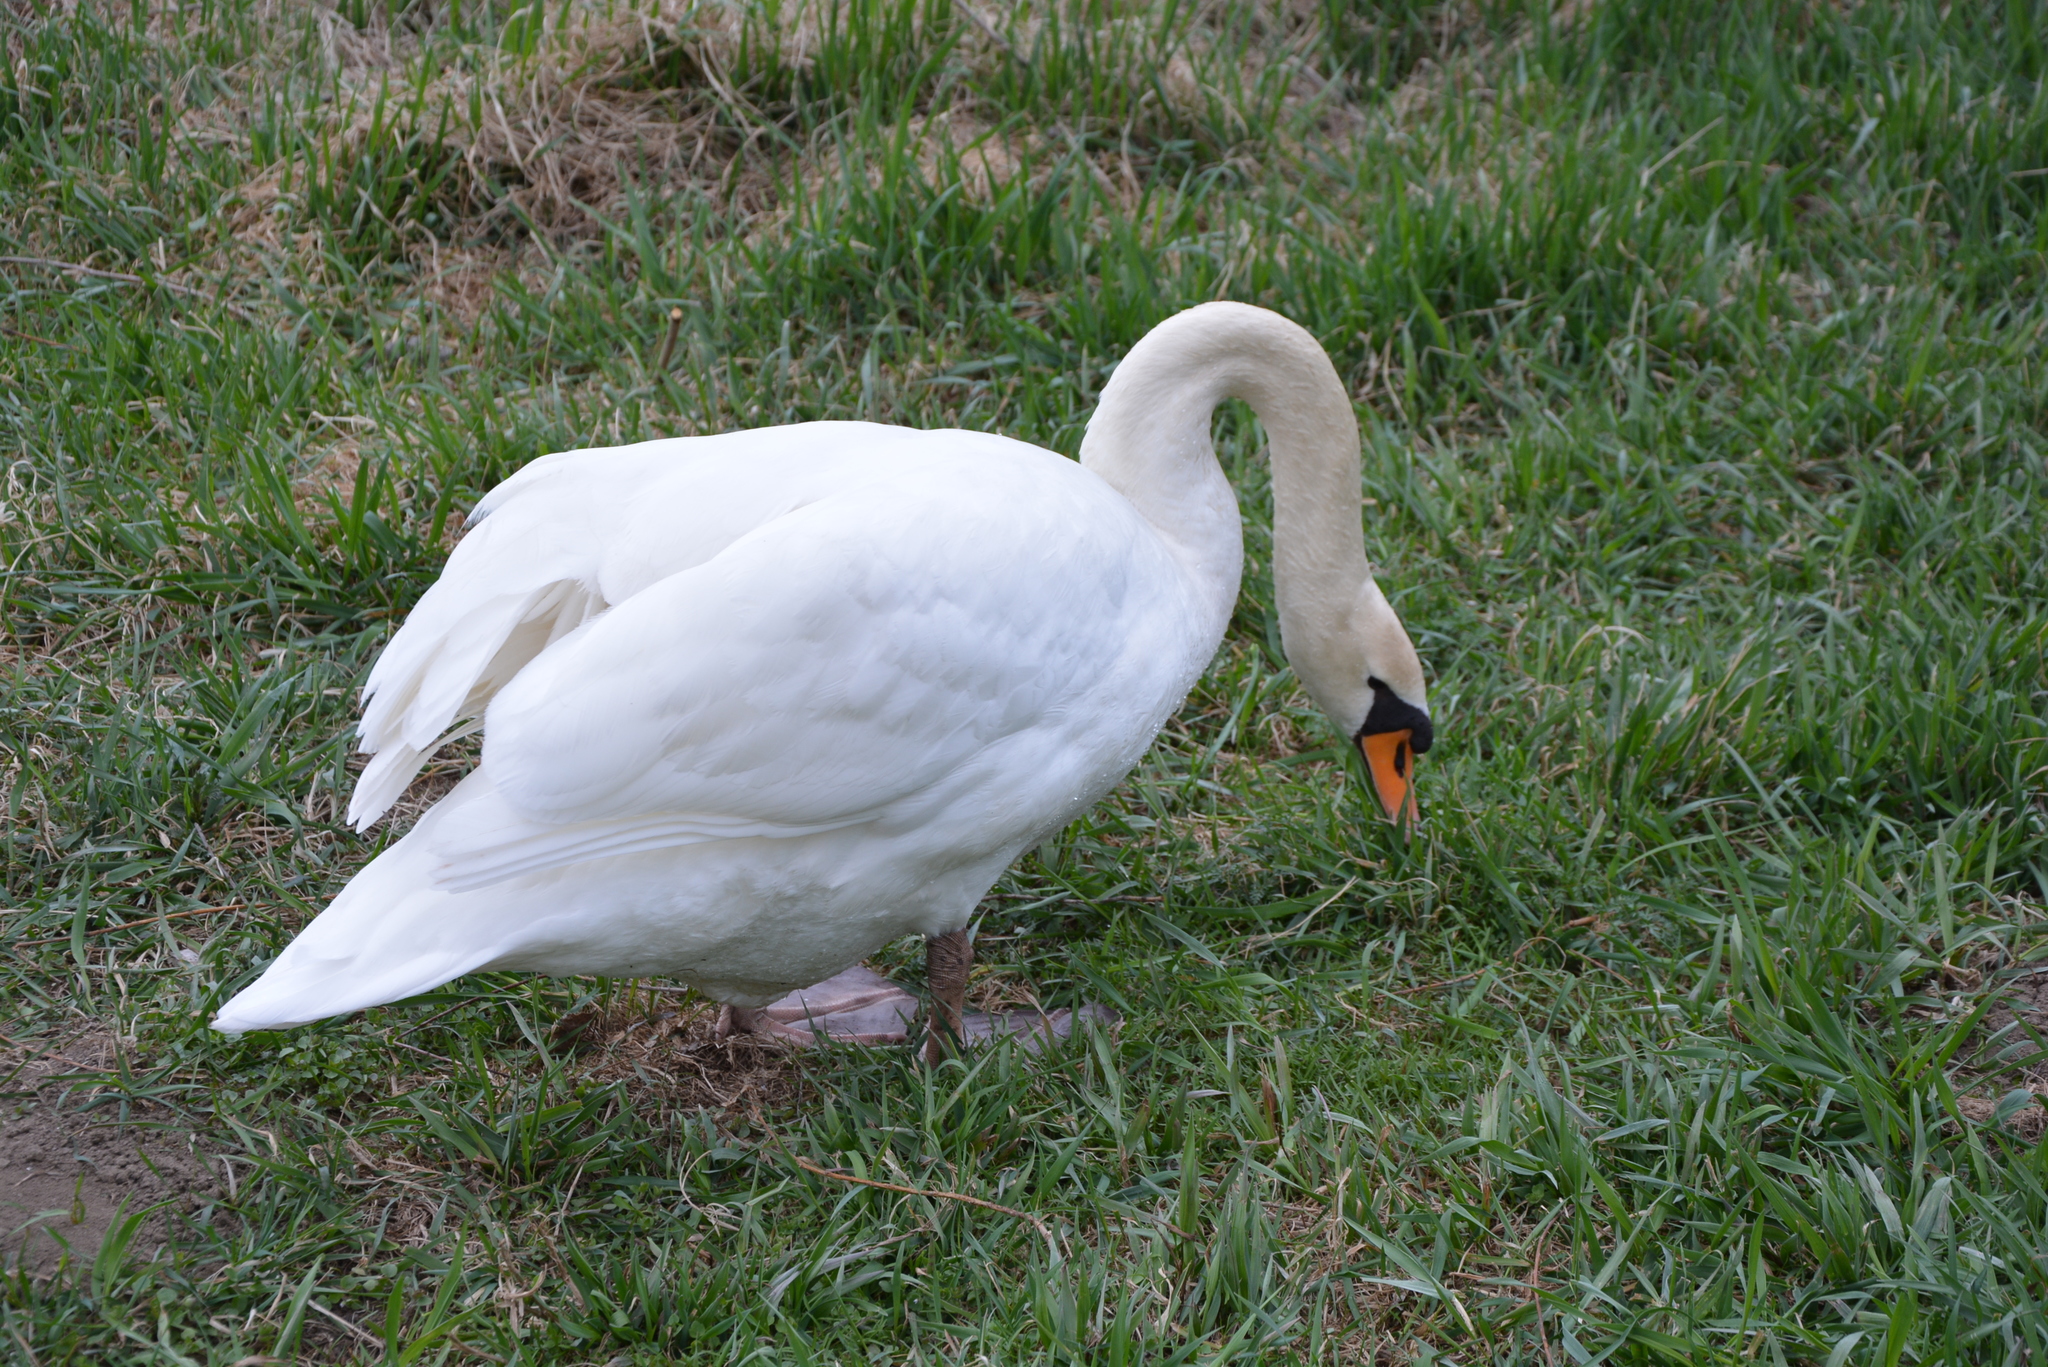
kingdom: Animalia
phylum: Chordata
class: Aves
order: Anseriformes
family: Anatidae
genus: Cygnus
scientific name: Cygnus olor
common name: Mute swan
